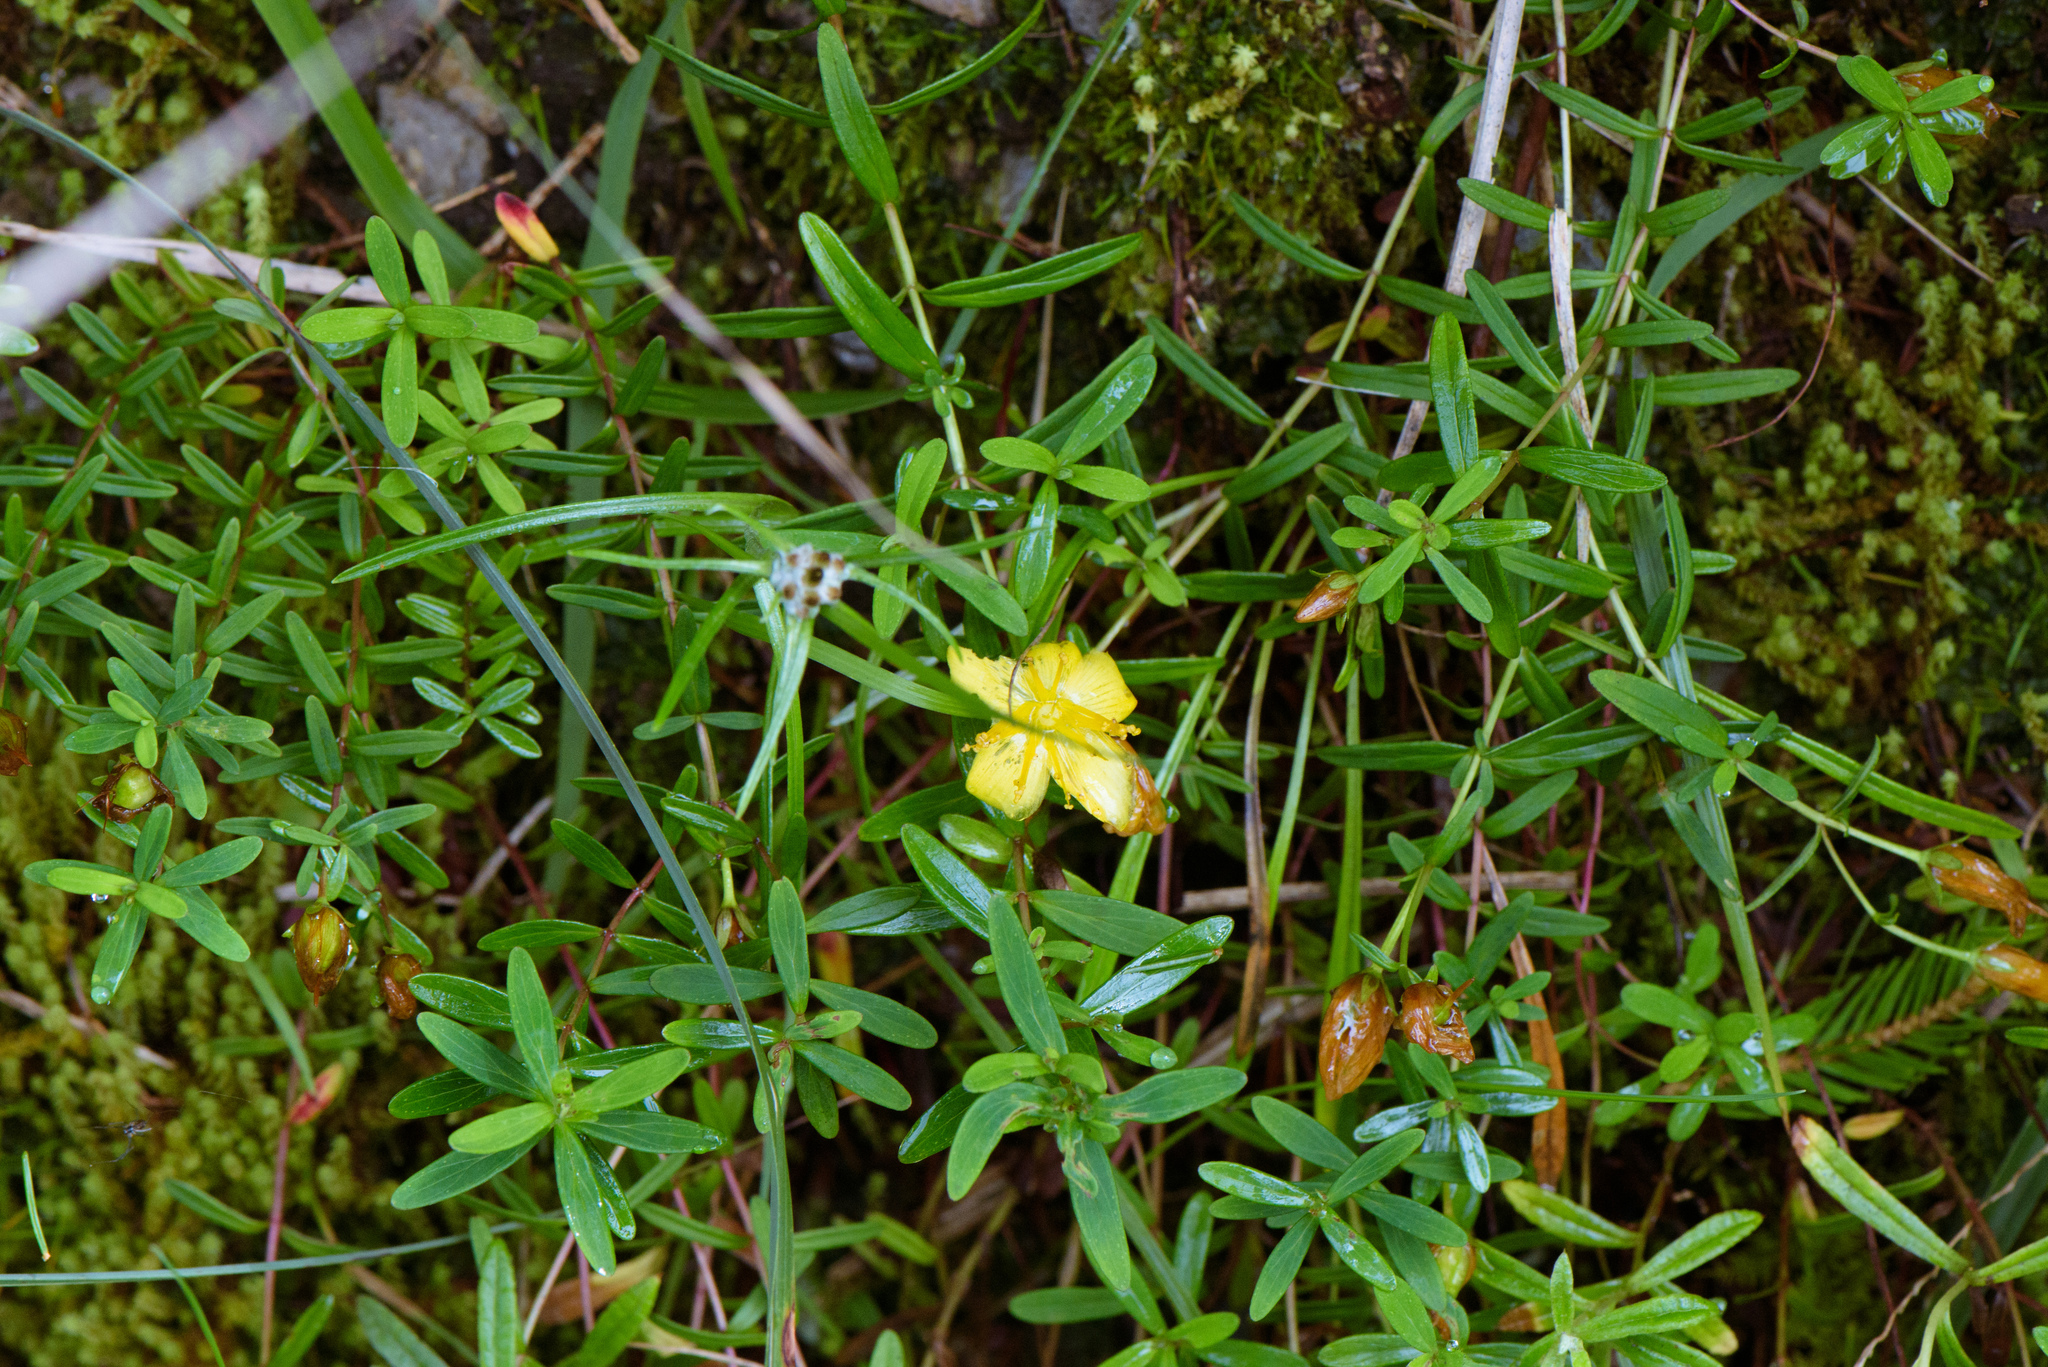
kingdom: Plantae
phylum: Tracheophyta
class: Magnoliopsida
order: Malpighiales
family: Hypericaceae
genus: Hypericum
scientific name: Hypericum nagasawae
